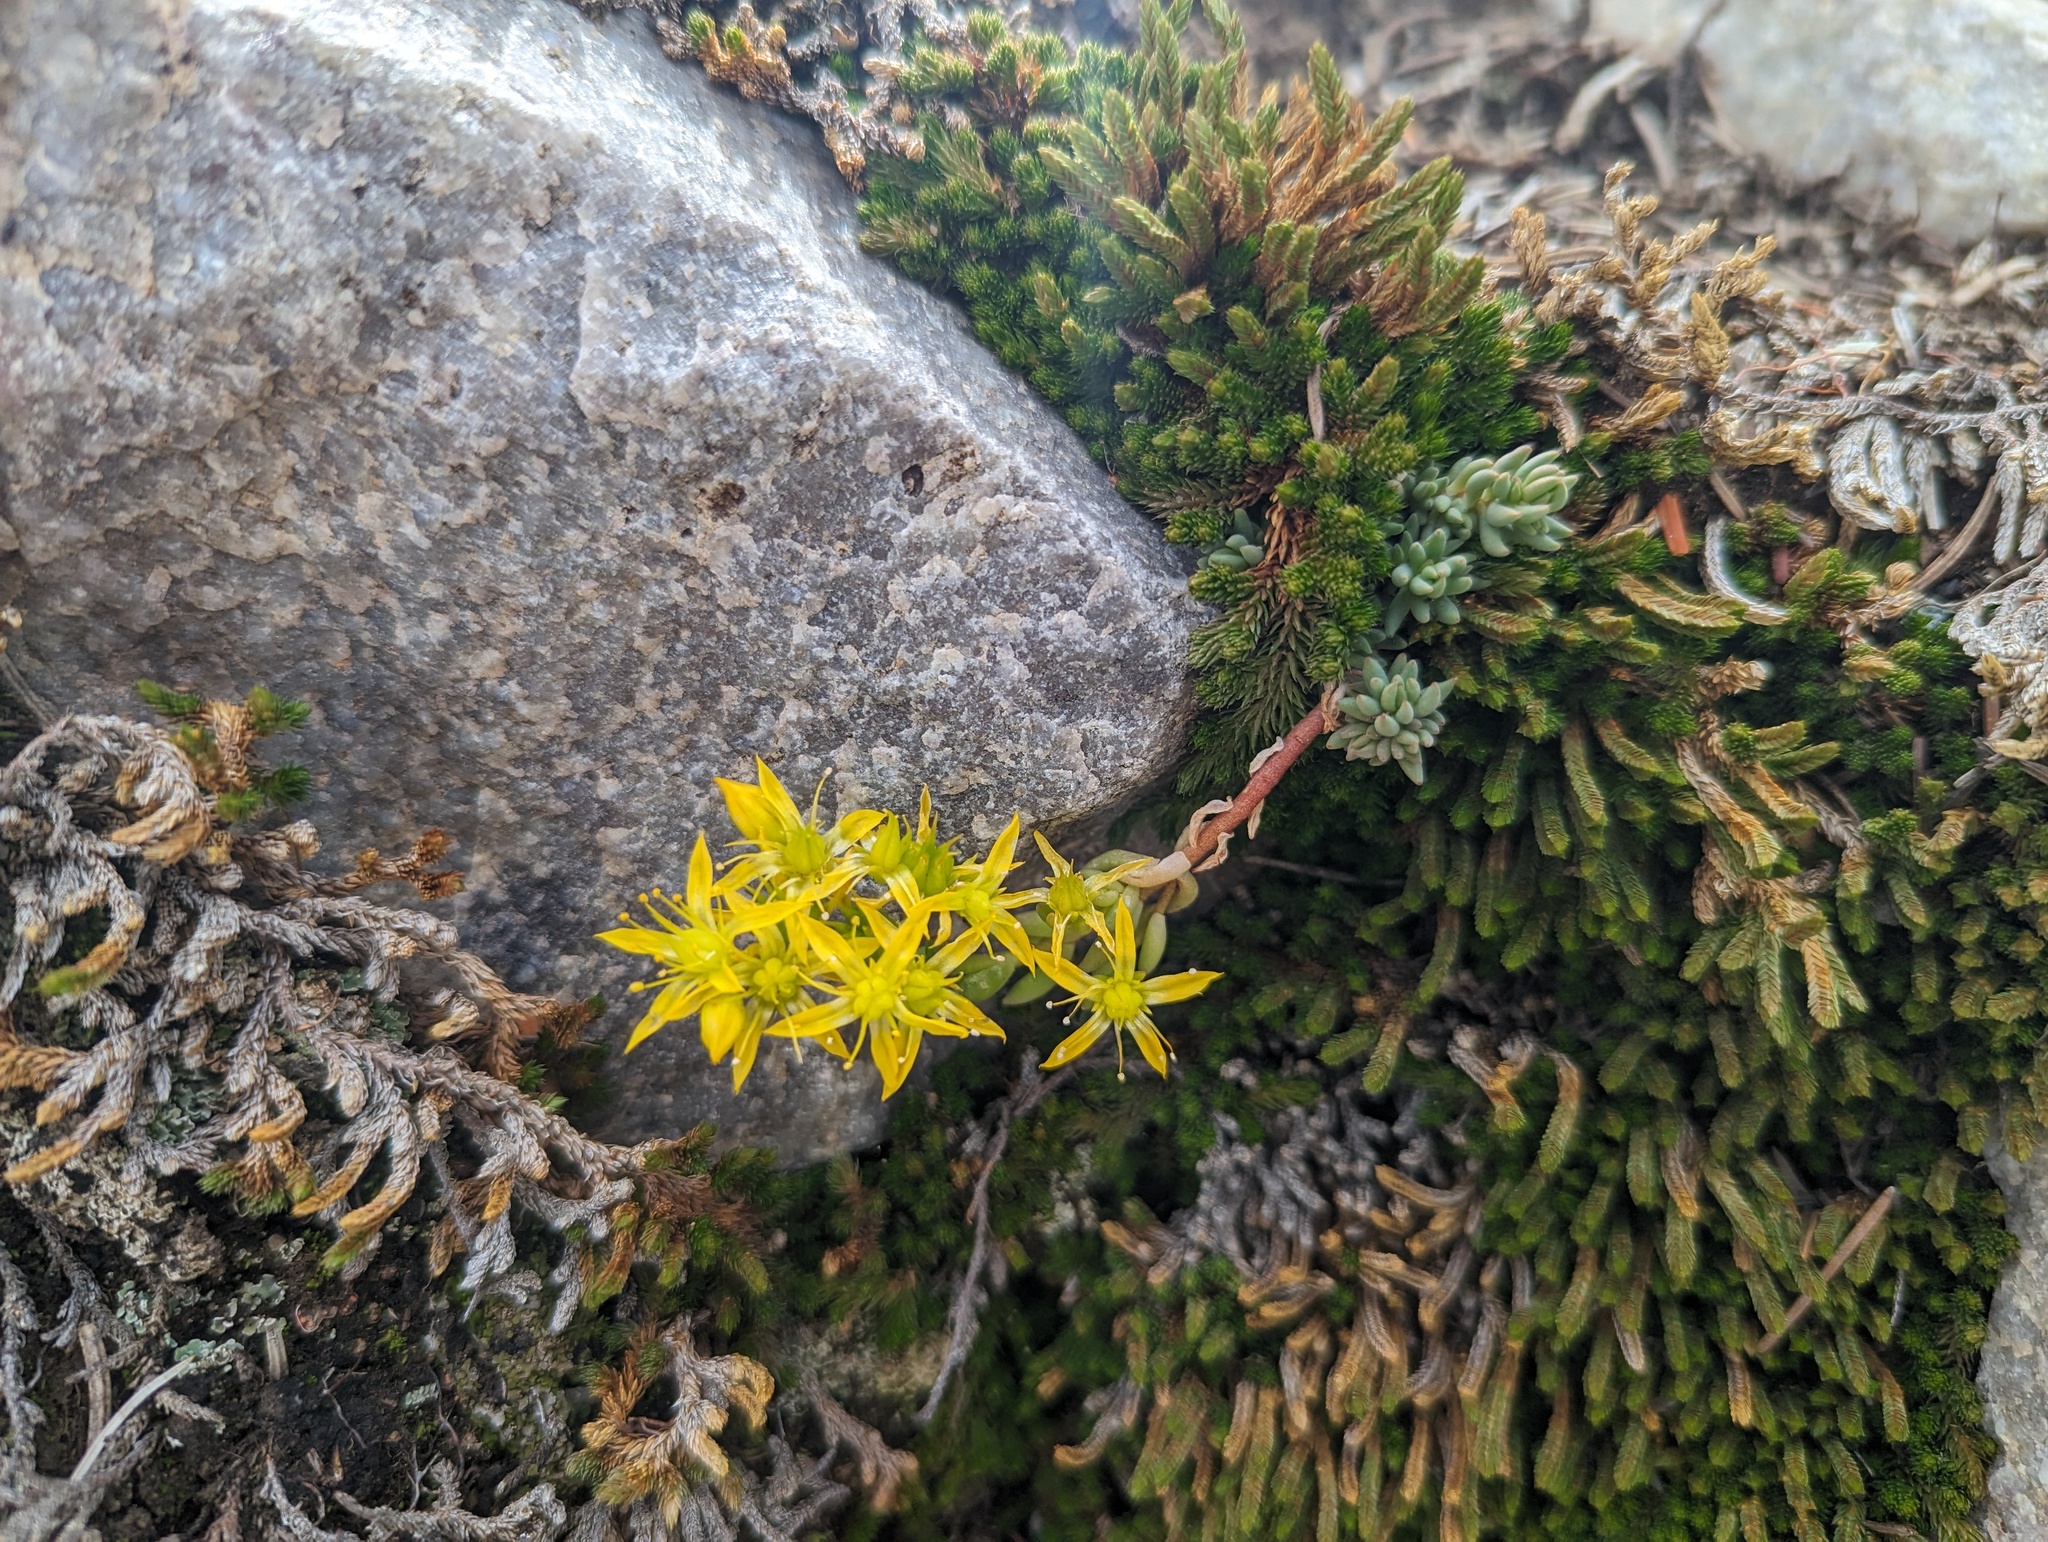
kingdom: Plantae
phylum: Tracheophyta
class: Magnoliopsida
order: Saxifragales
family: Crassulaceae
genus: Sedum
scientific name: Sedum lanceolatum
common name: Common stonecrop
